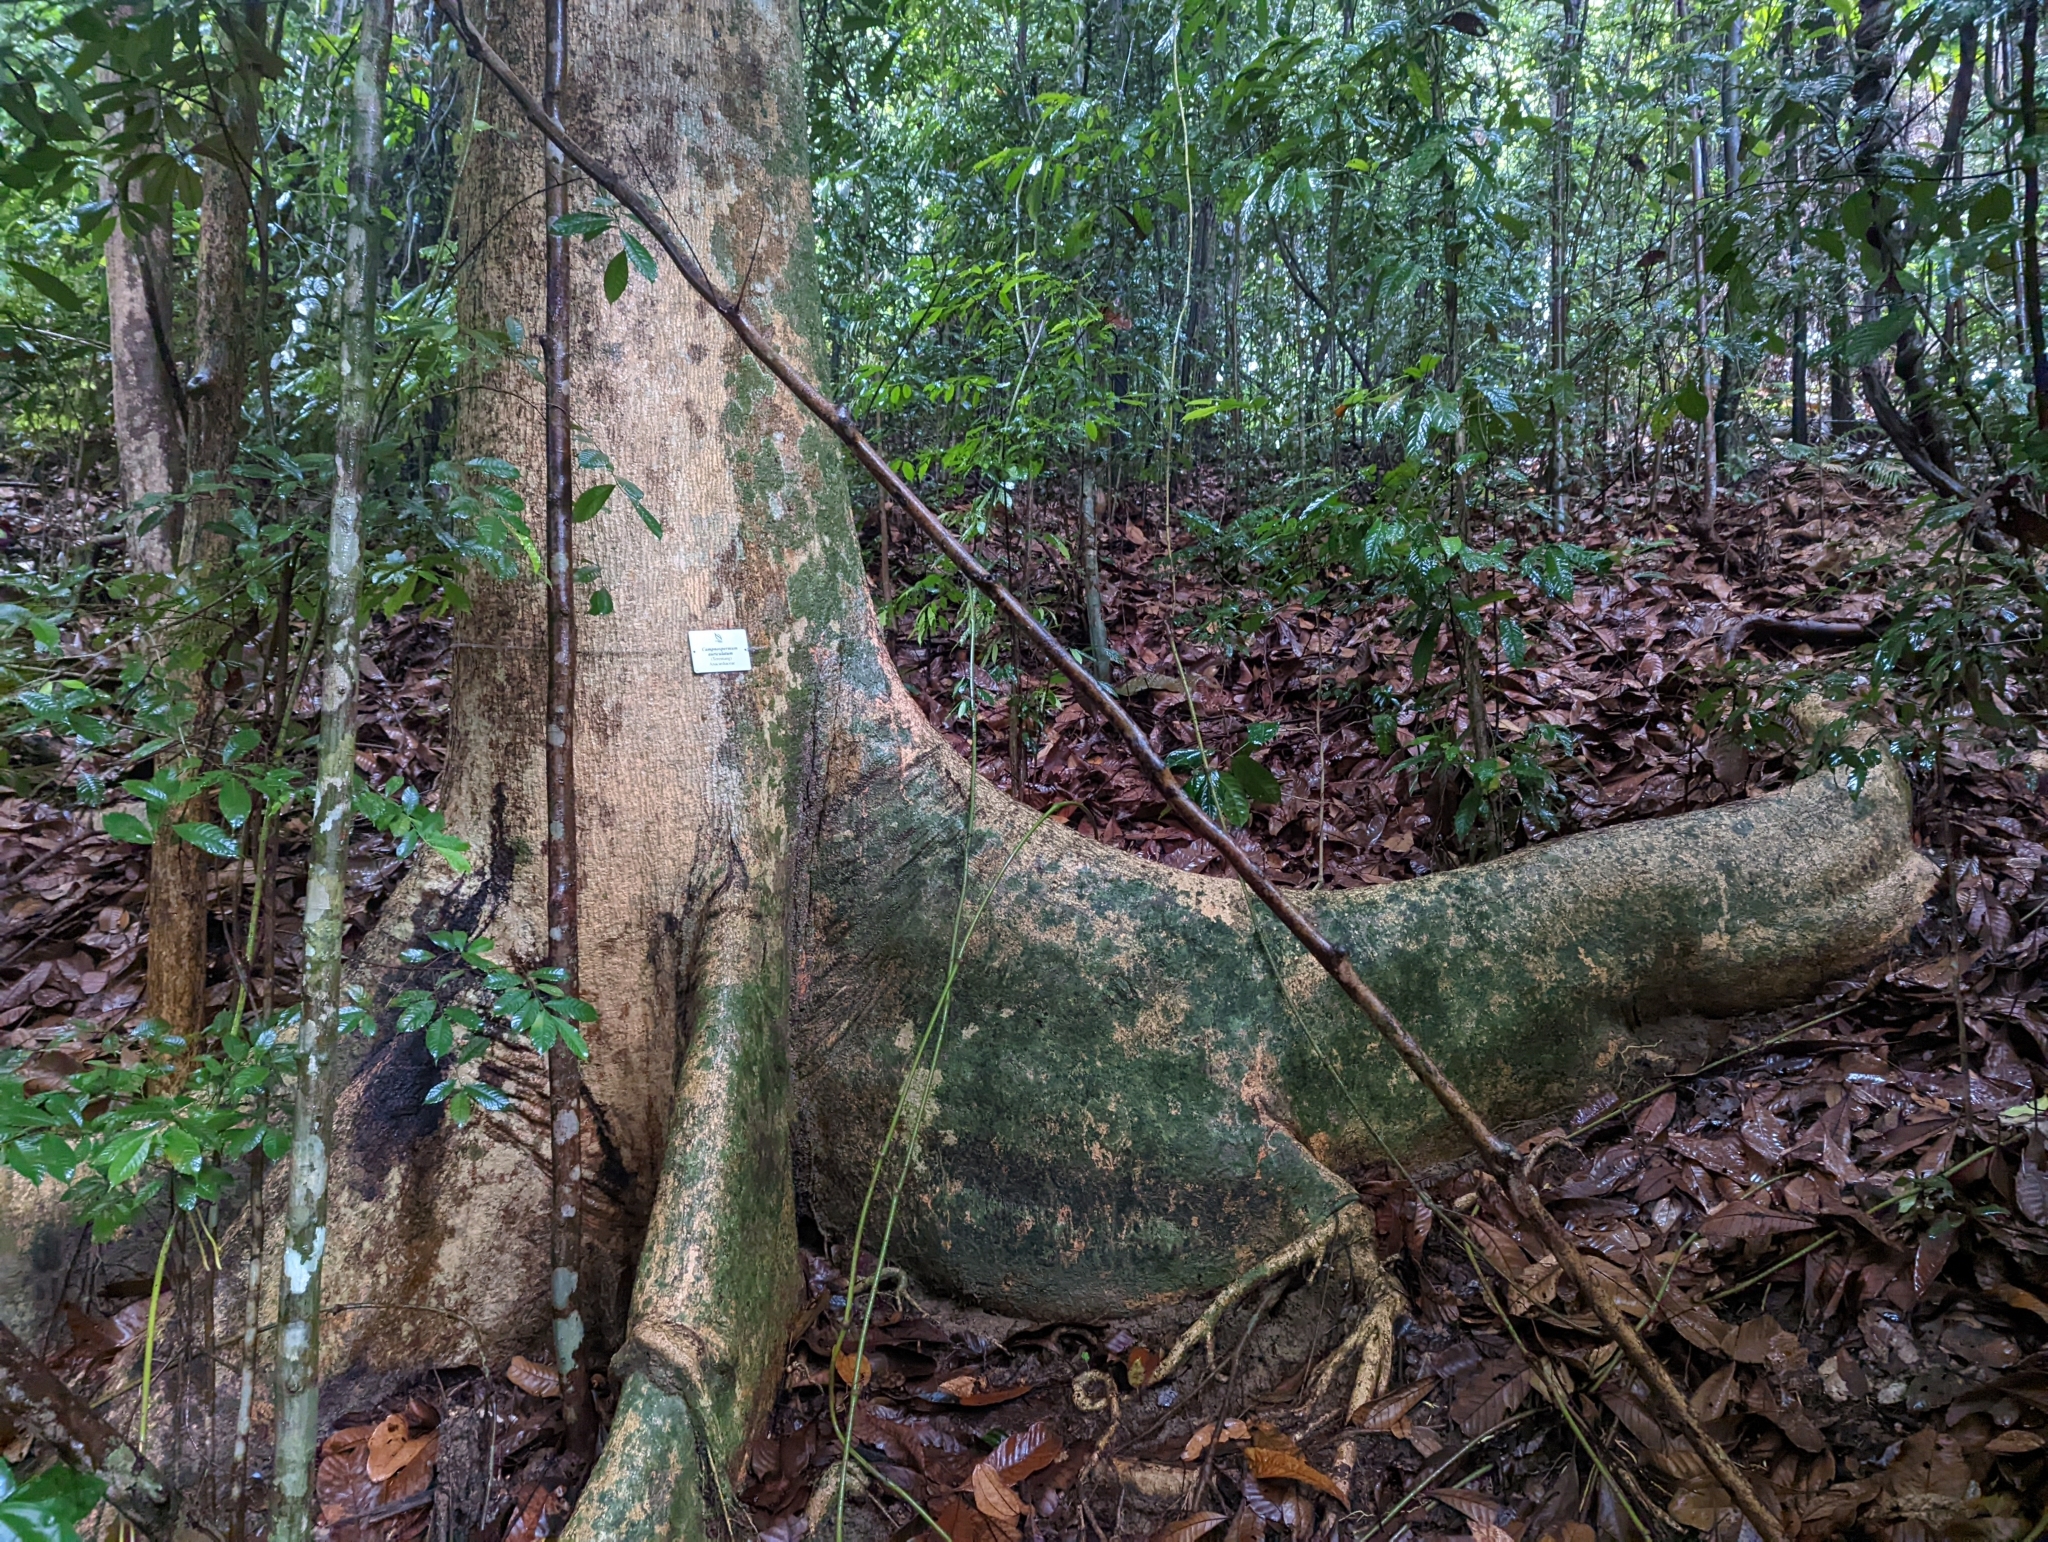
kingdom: Plantae
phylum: Tracheophyta
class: Magnoliopsida
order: Sapindales
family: Anacardiaceae
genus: Campnosperma
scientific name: Campnosperma auriculatum
